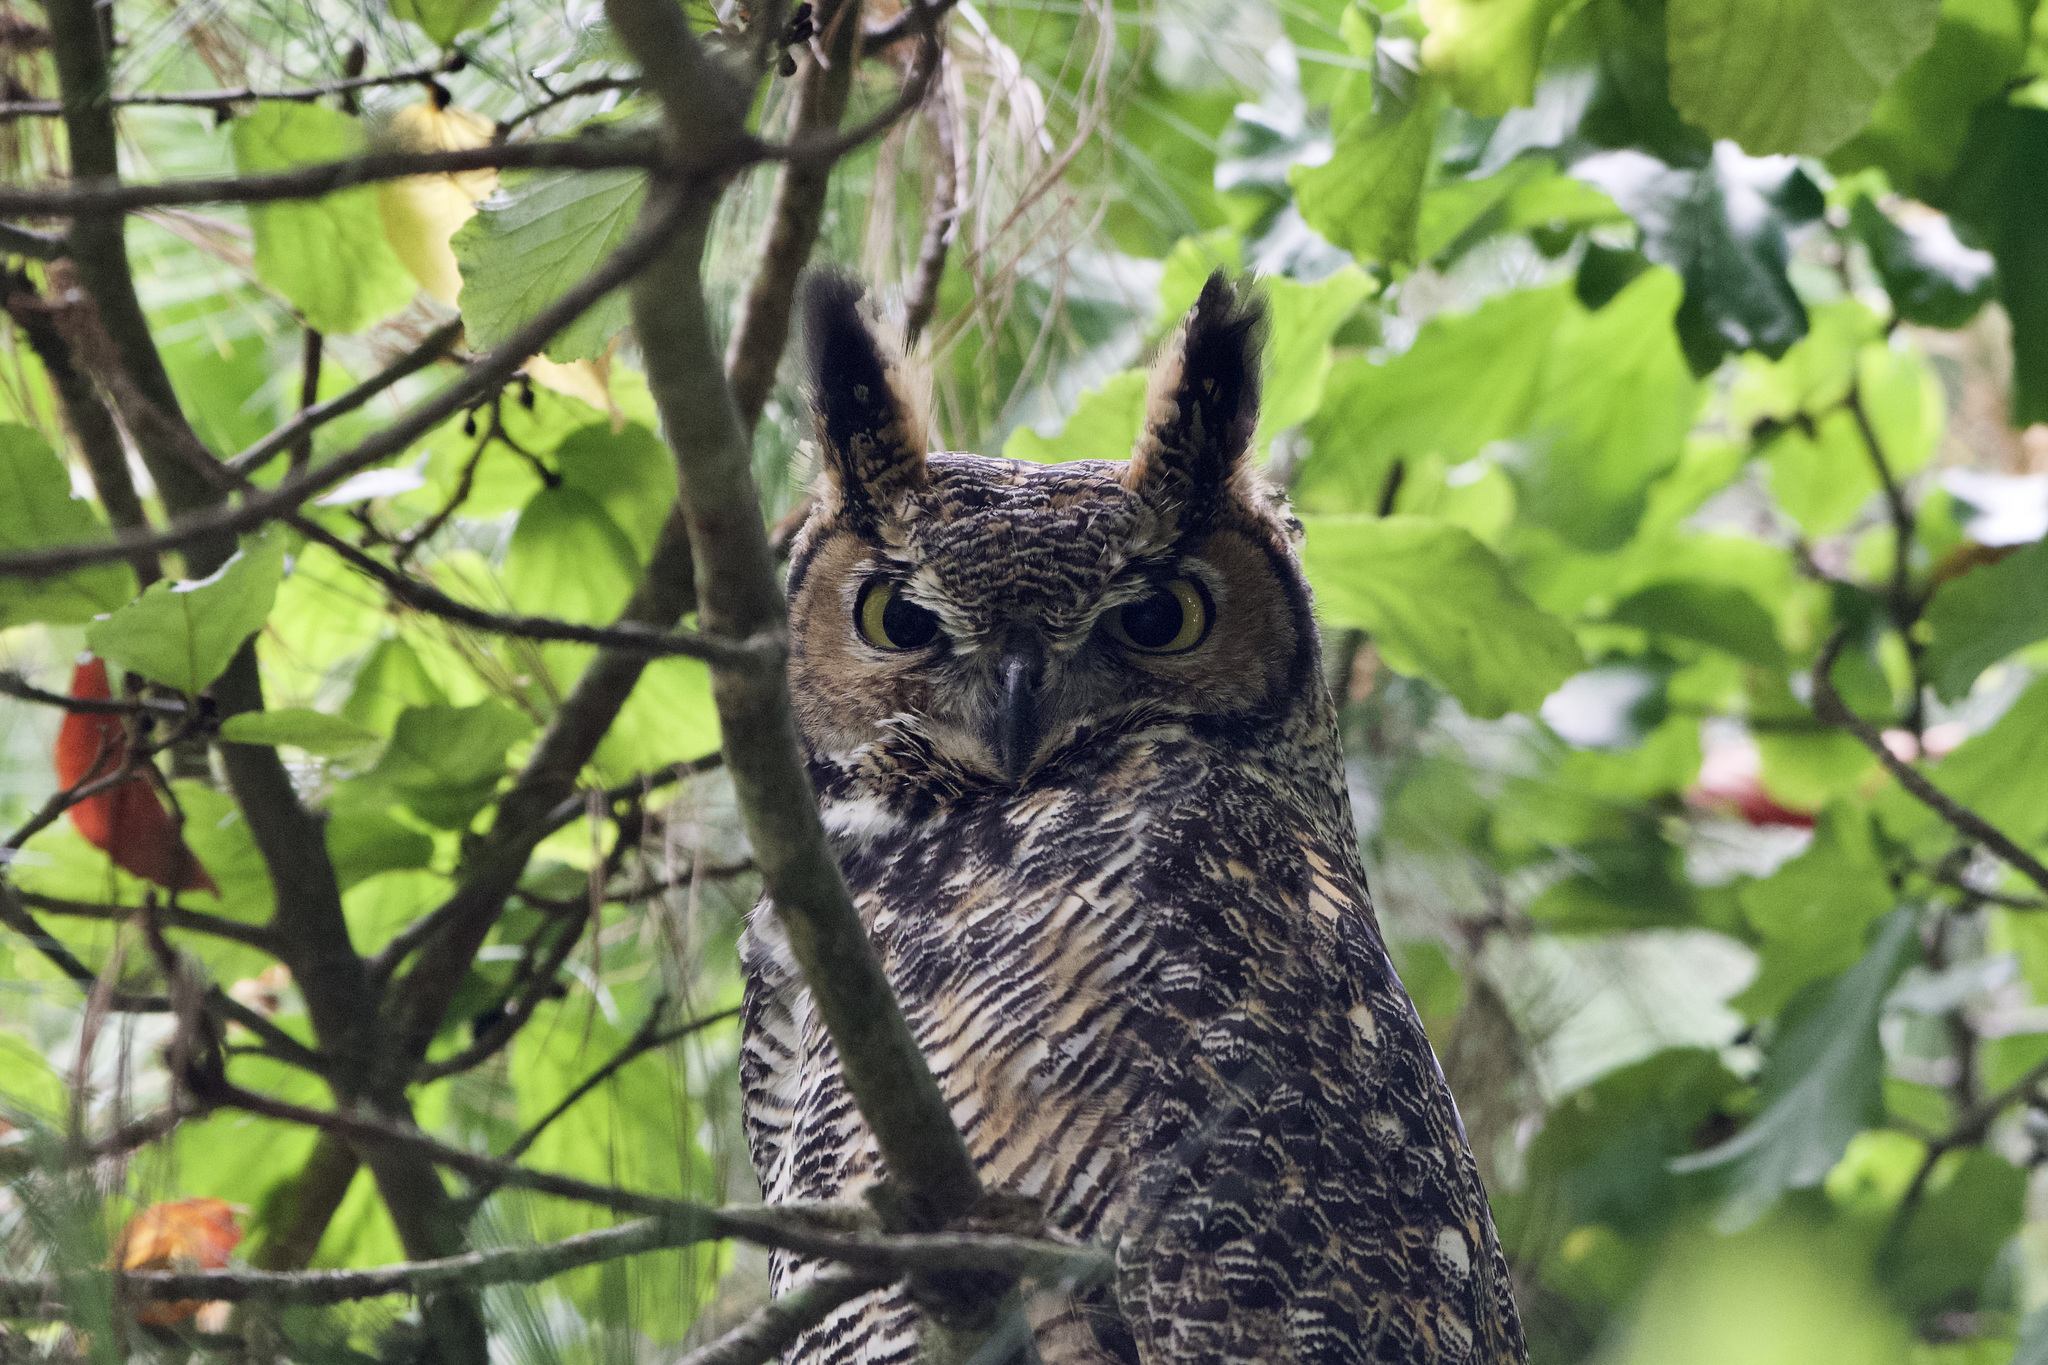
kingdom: Animalia
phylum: Chordata
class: Aves
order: Strigiformes
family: Strigidae
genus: Bubo
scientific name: Bubo virginianus
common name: Great horned owl
